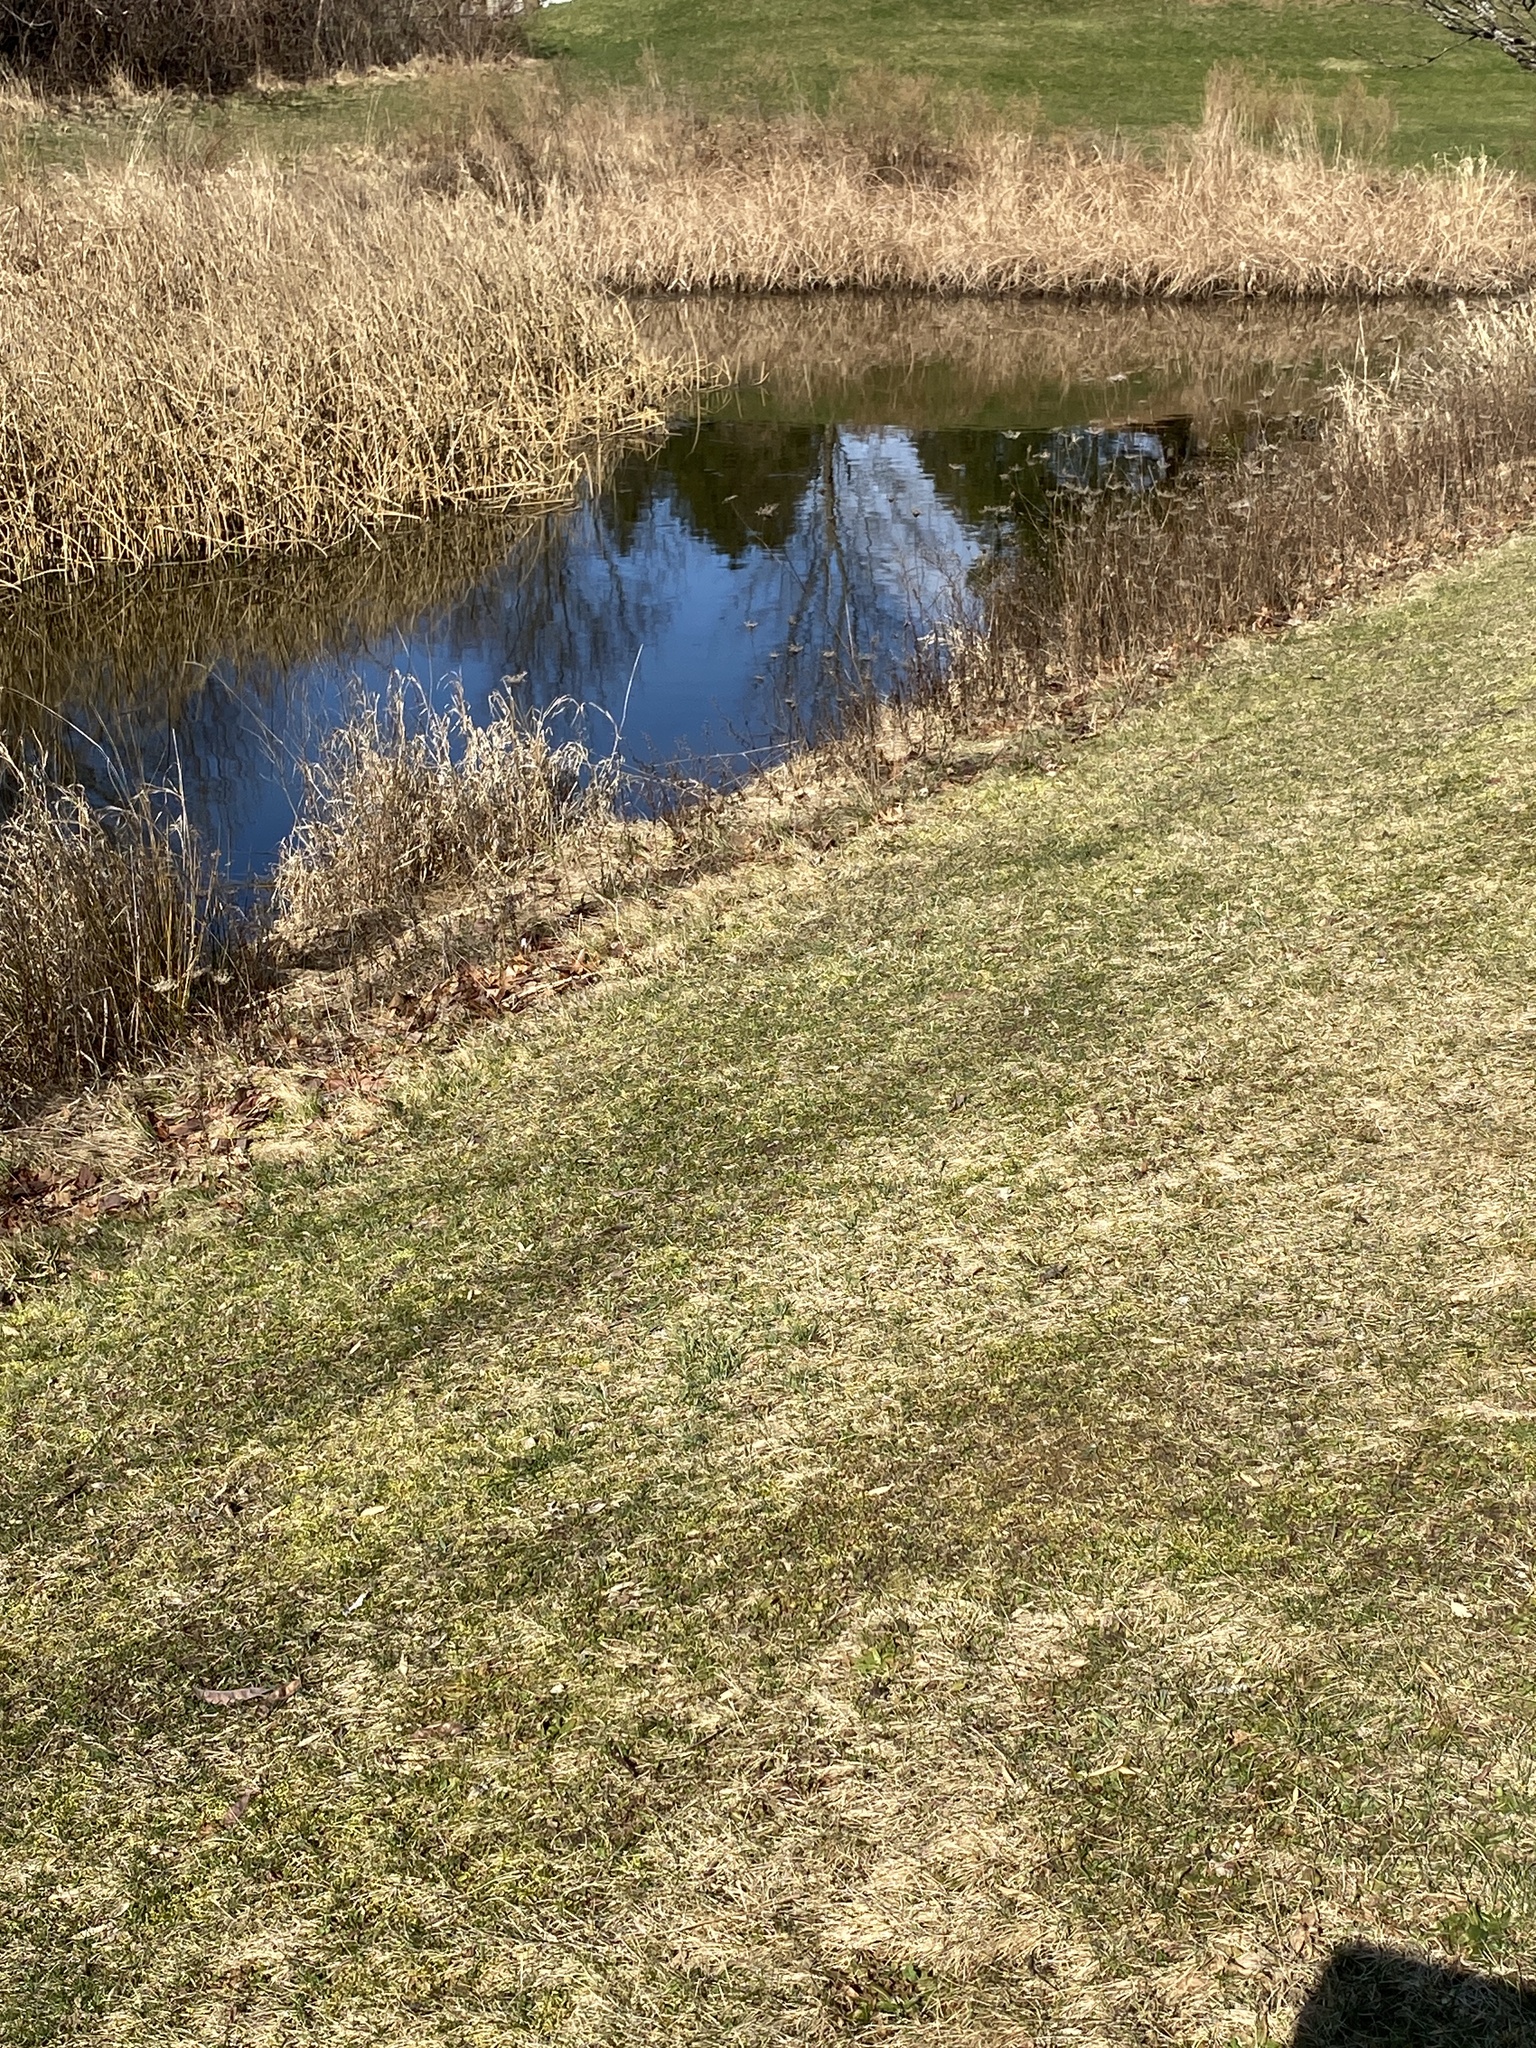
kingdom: Plantae
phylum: Tracheophyta
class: Magnoliopsida
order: Apiales
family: Apiaceae
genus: Daucus
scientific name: Daucus carota
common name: Wild carrot
